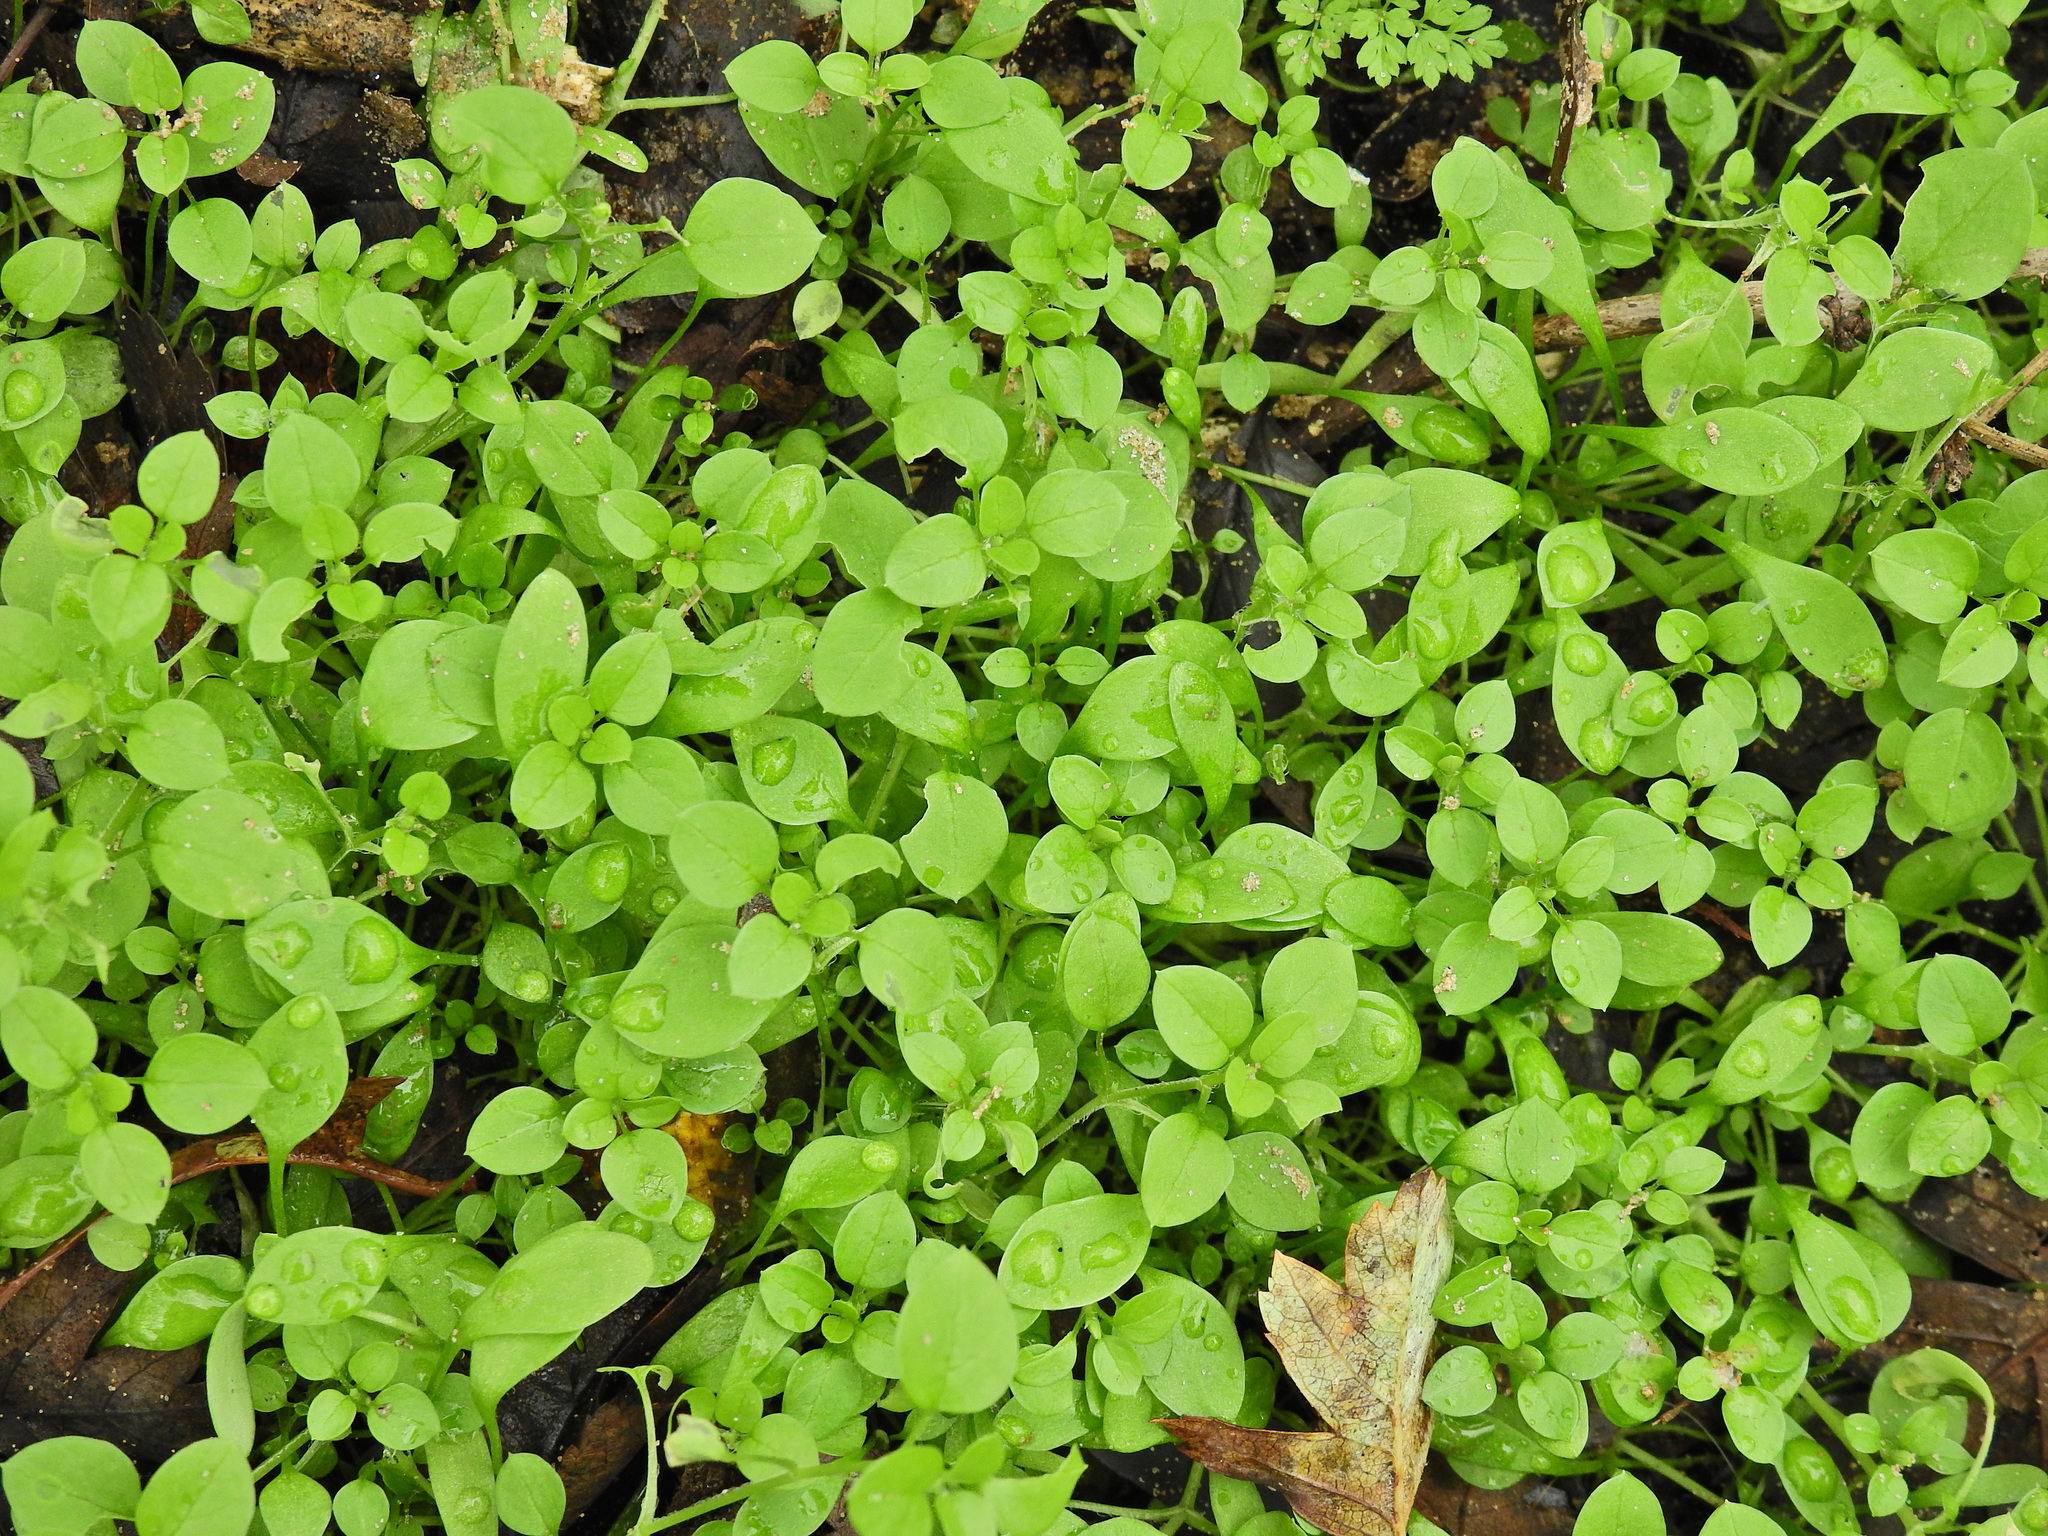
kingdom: Plantae
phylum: Tracheophyta
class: Magnoliopsida
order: Caryophyllales
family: Caryophyllaceae
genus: Stellaria
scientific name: Stellaria media
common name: Common chickweed
